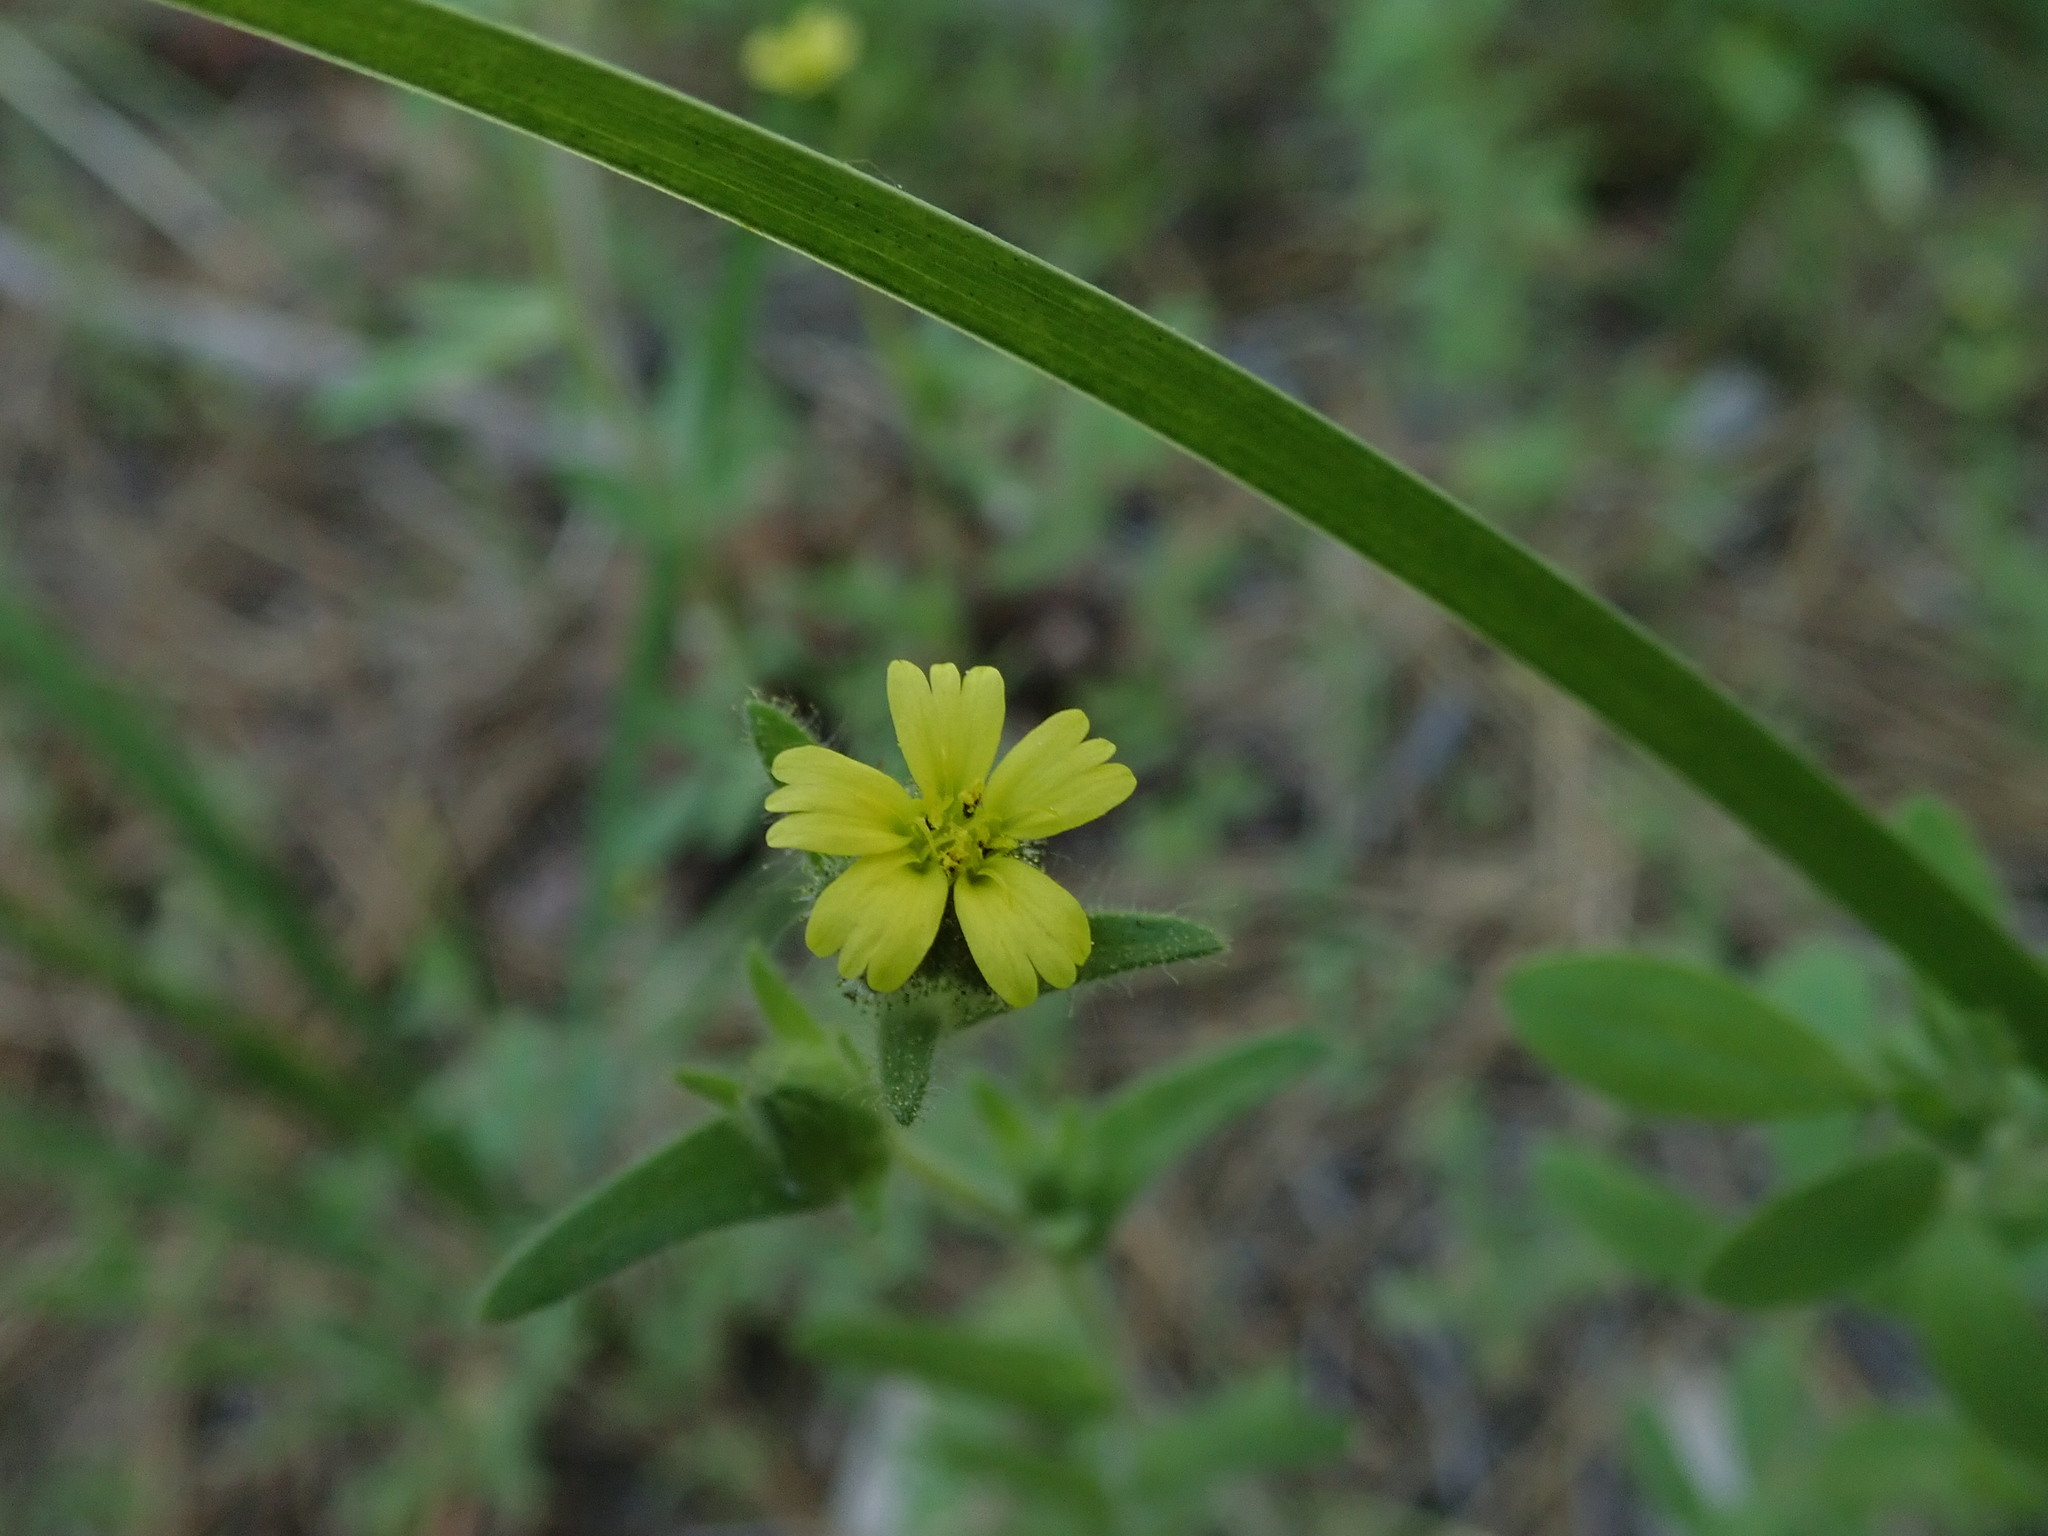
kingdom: Plantae
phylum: Tracheophyta
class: Magnoliopsida
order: Asterales
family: Asteraceae
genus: Madia
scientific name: Madia gracilis
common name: Grassy tarweed
